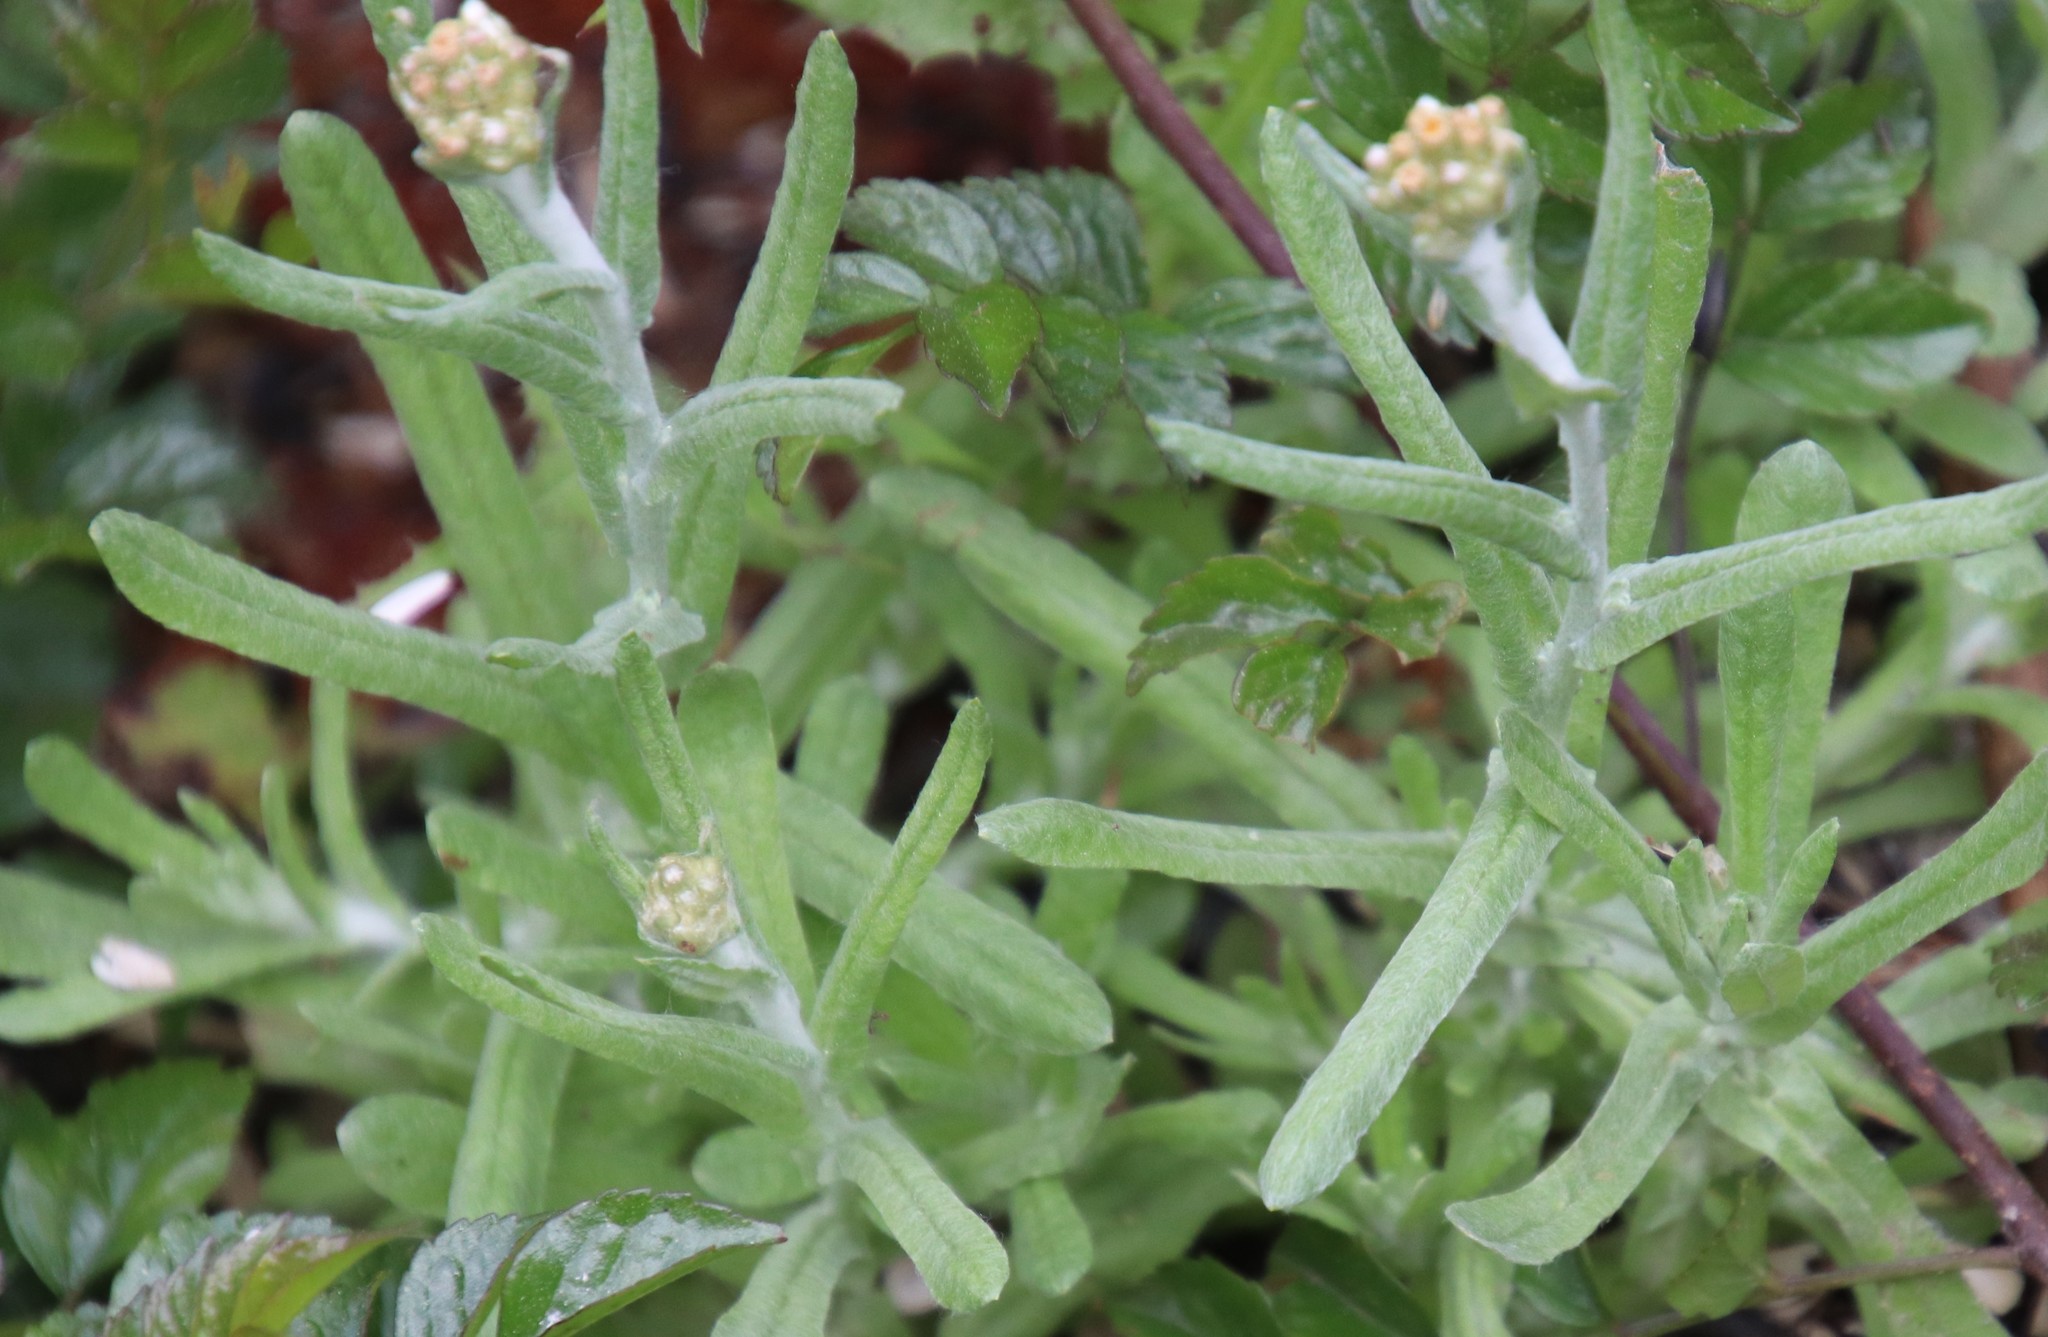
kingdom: Plantae
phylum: Tracheophyta
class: Magnoliopsida
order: Asterales
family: Asteraceae
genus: Helichrysum
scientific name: Helichrysum luteoalbum
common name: Daisy
